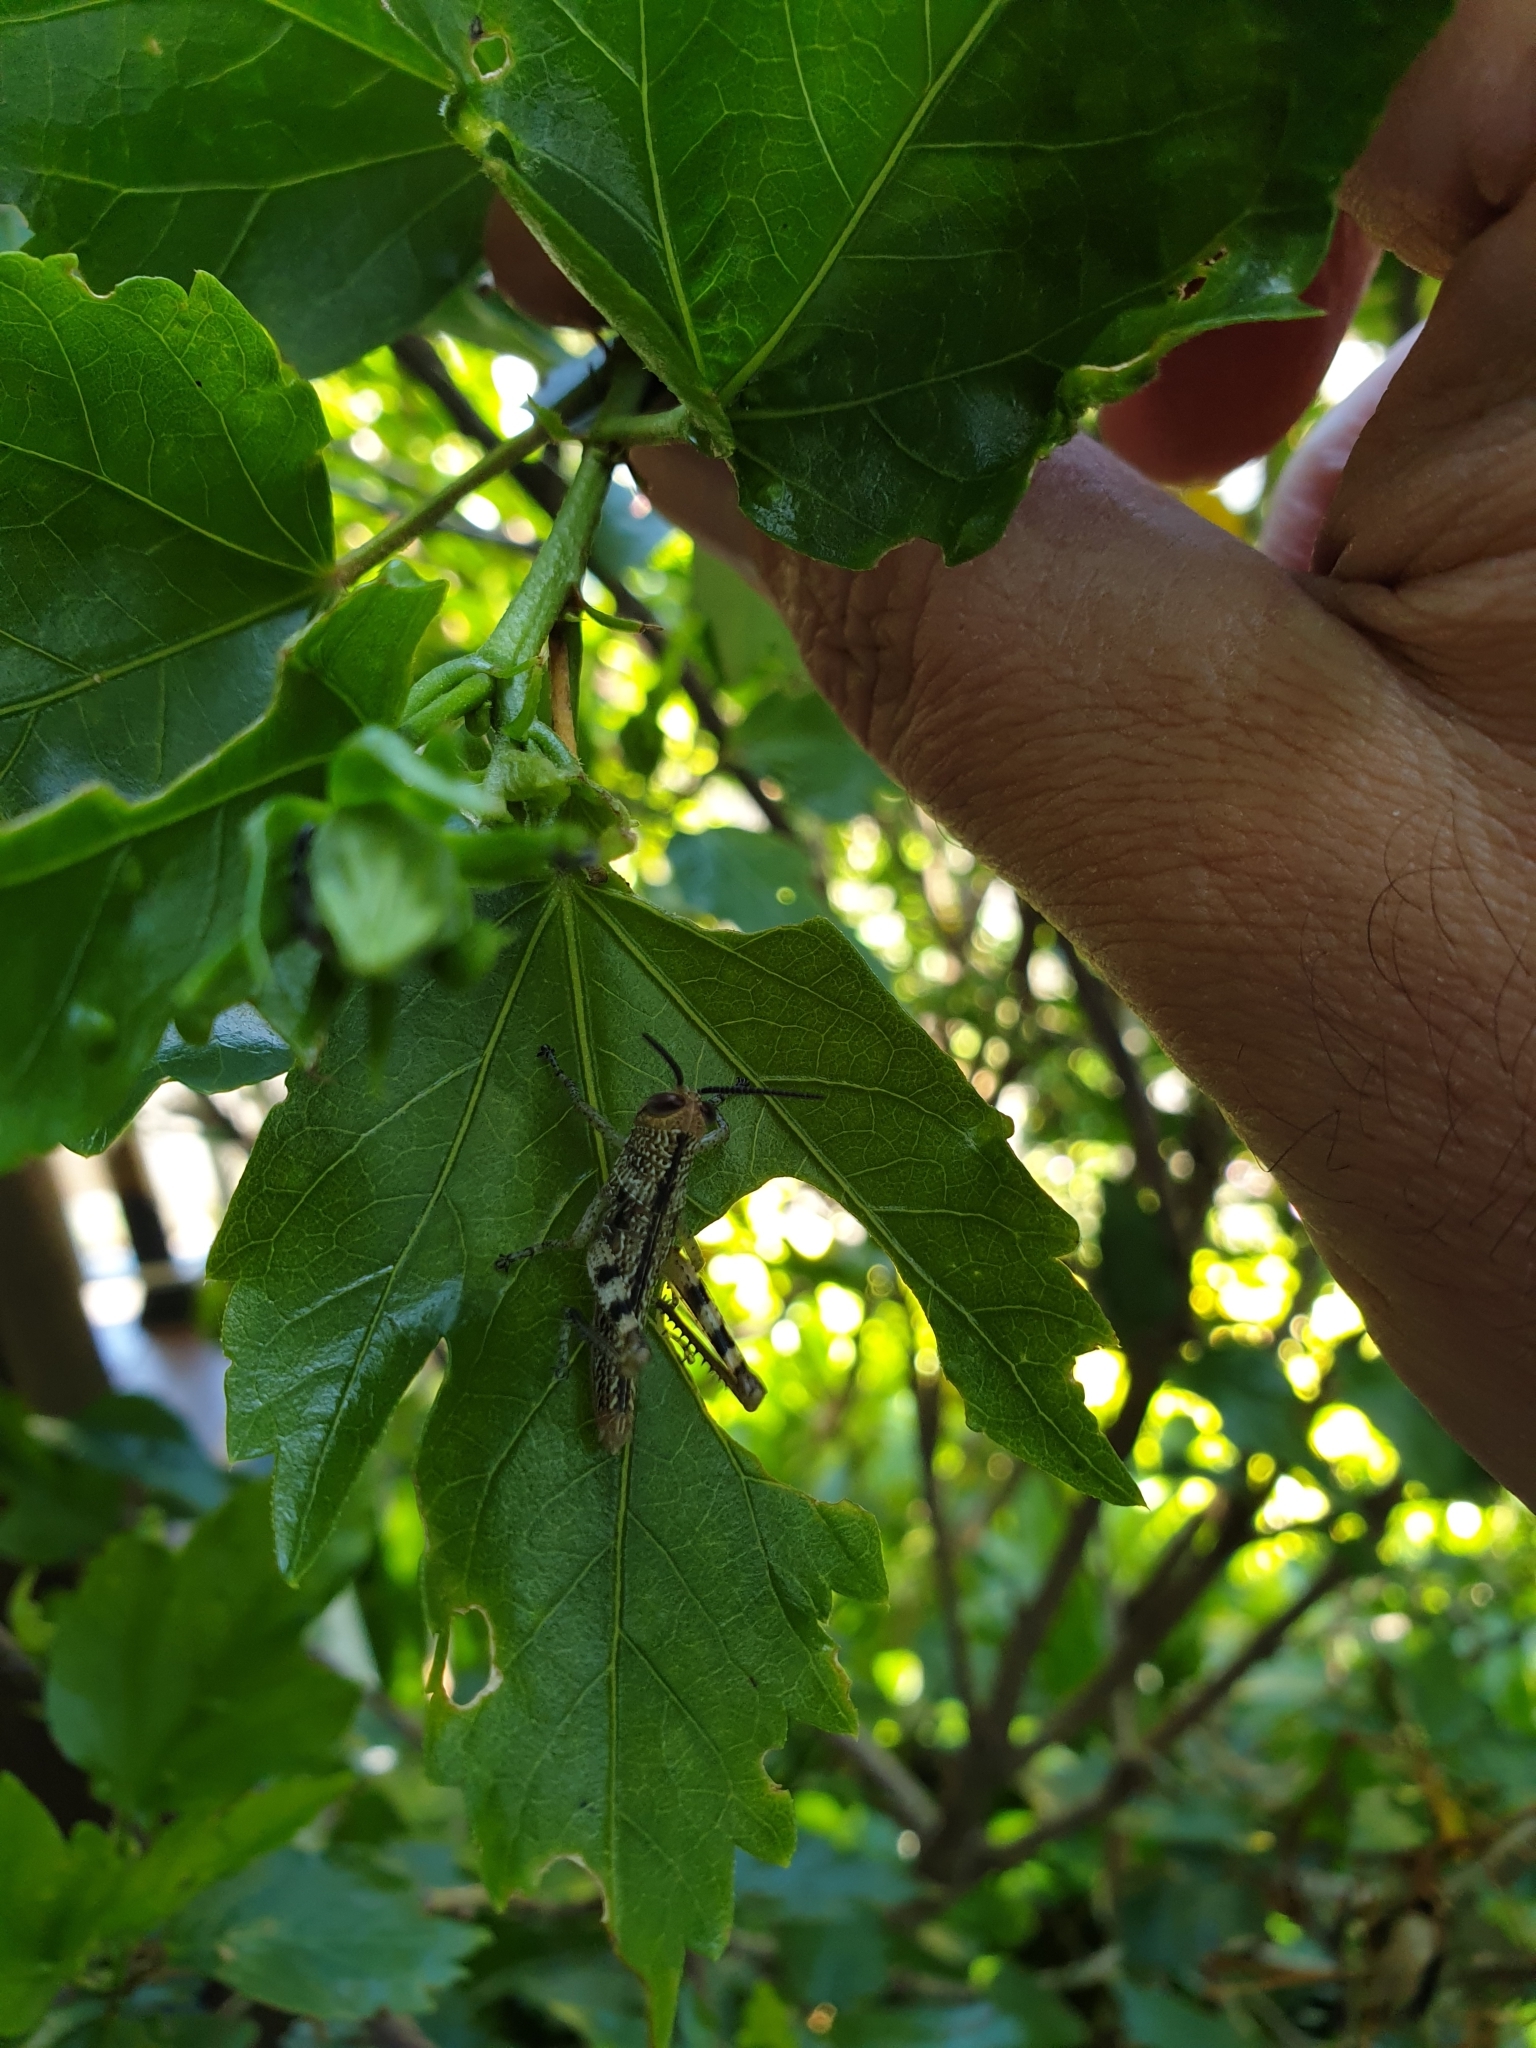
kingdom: Animalia
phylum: Arthropoda
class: Insecta
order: Orthoptera
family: Acrididae
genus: Valanga
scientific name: Valanga irregularis
